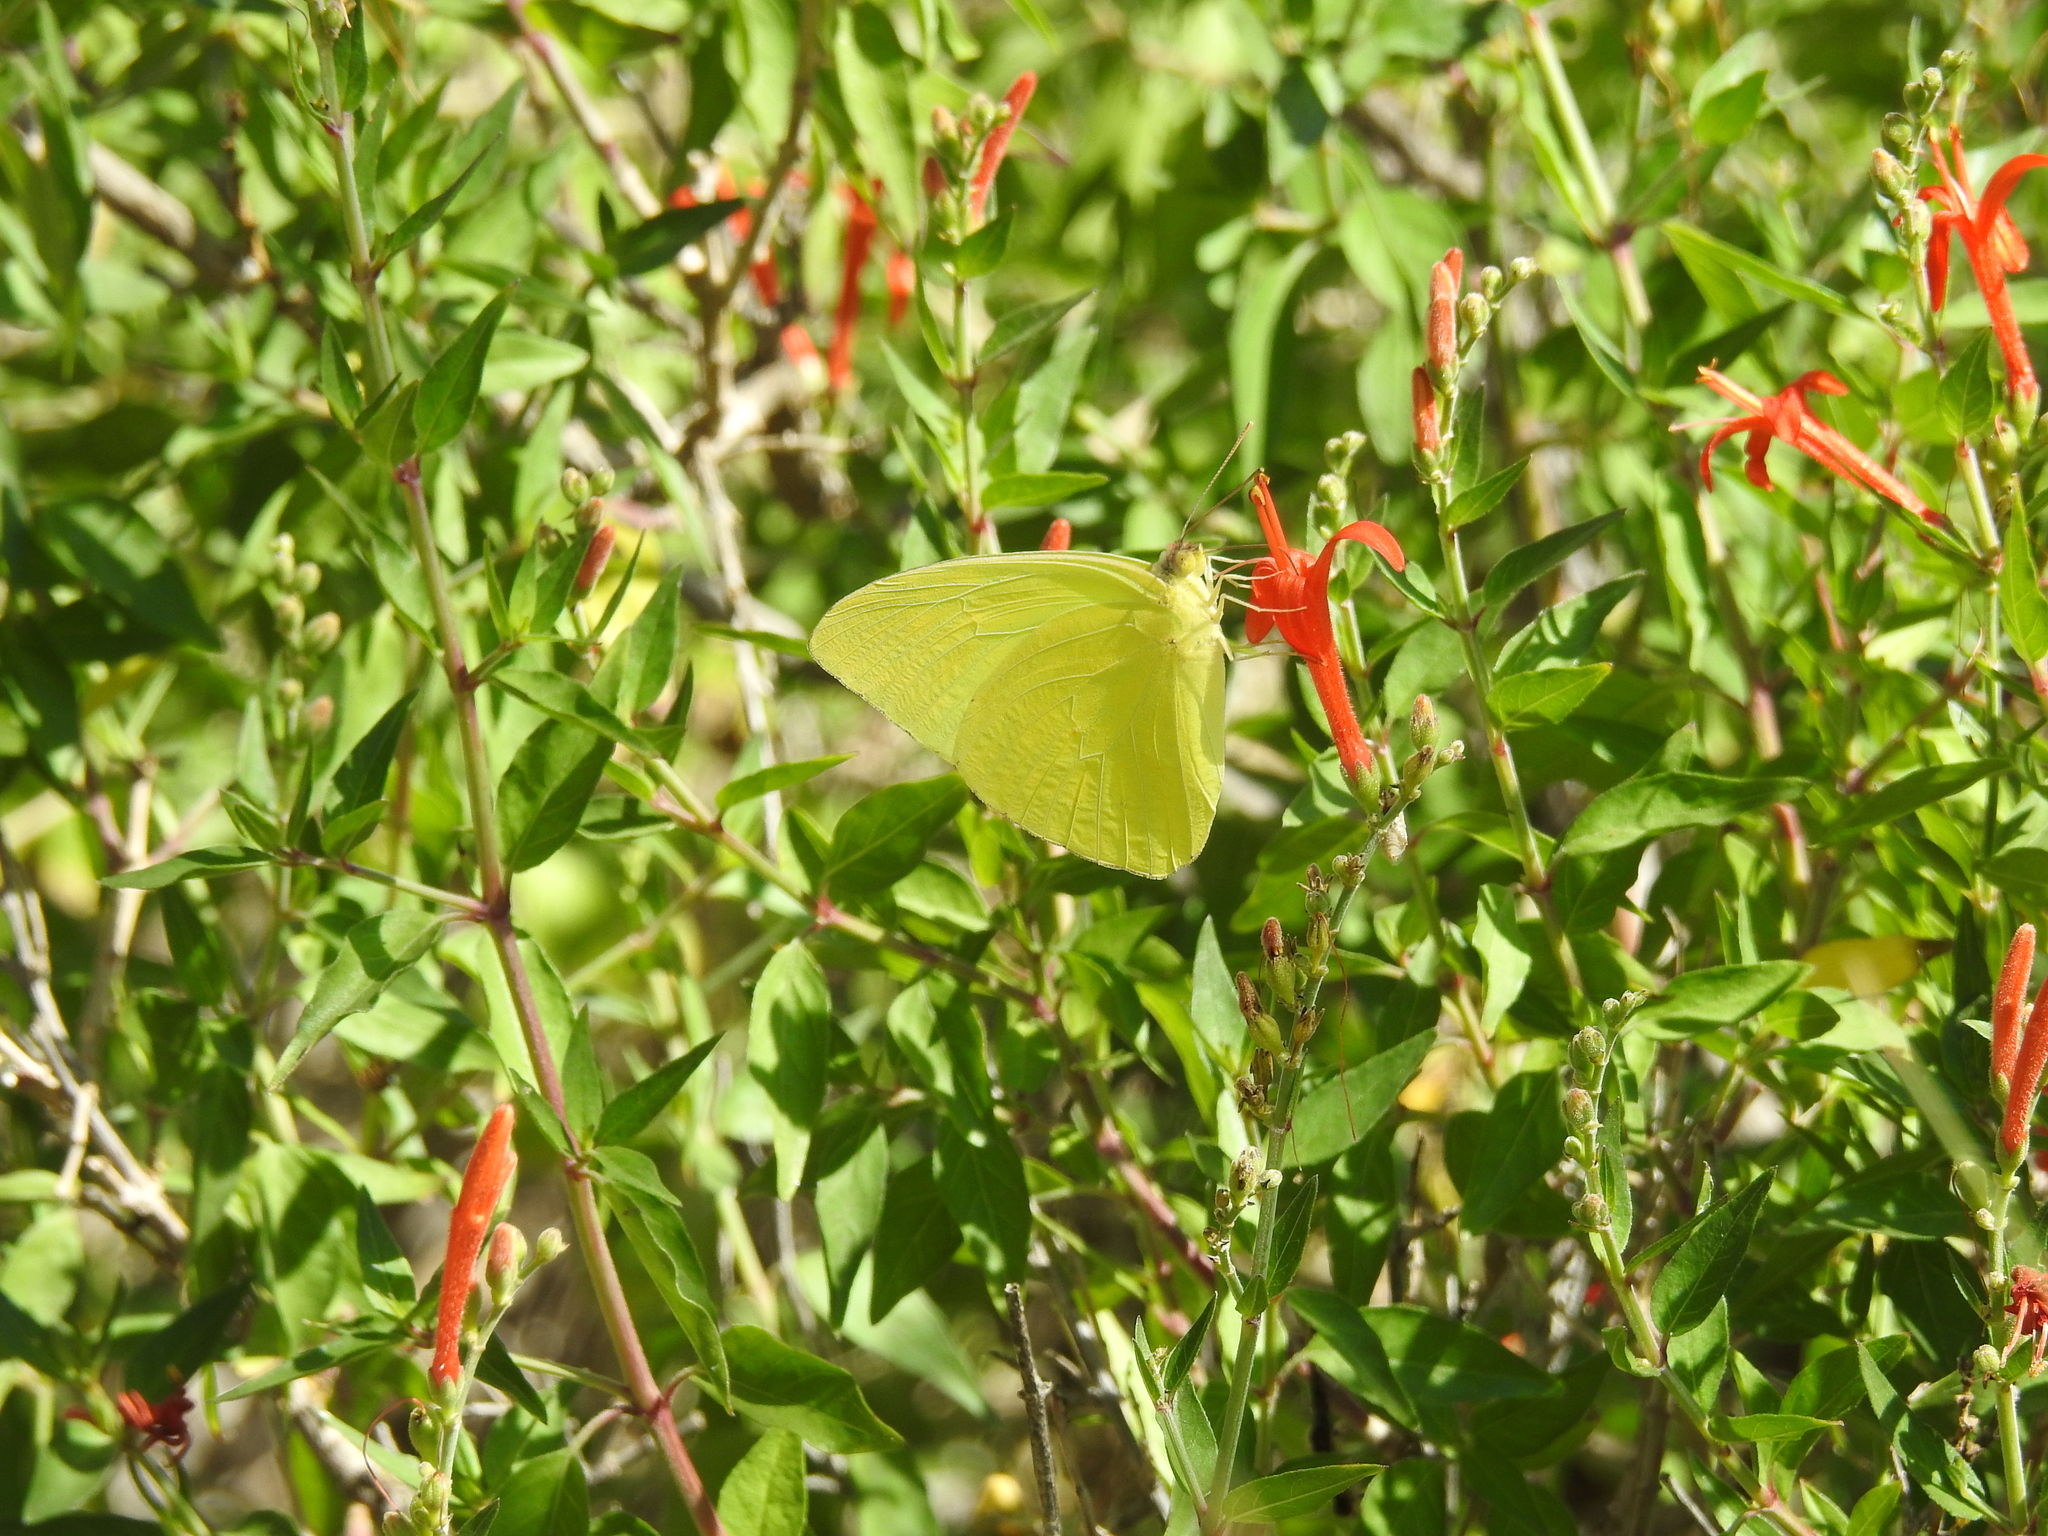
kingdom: Animalia
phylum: Arthropoda
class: Insecta
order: Lepidoptera
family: Pieridae
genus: Phoebis
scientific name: Phoebis sennae
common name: Cloudless sulphur
